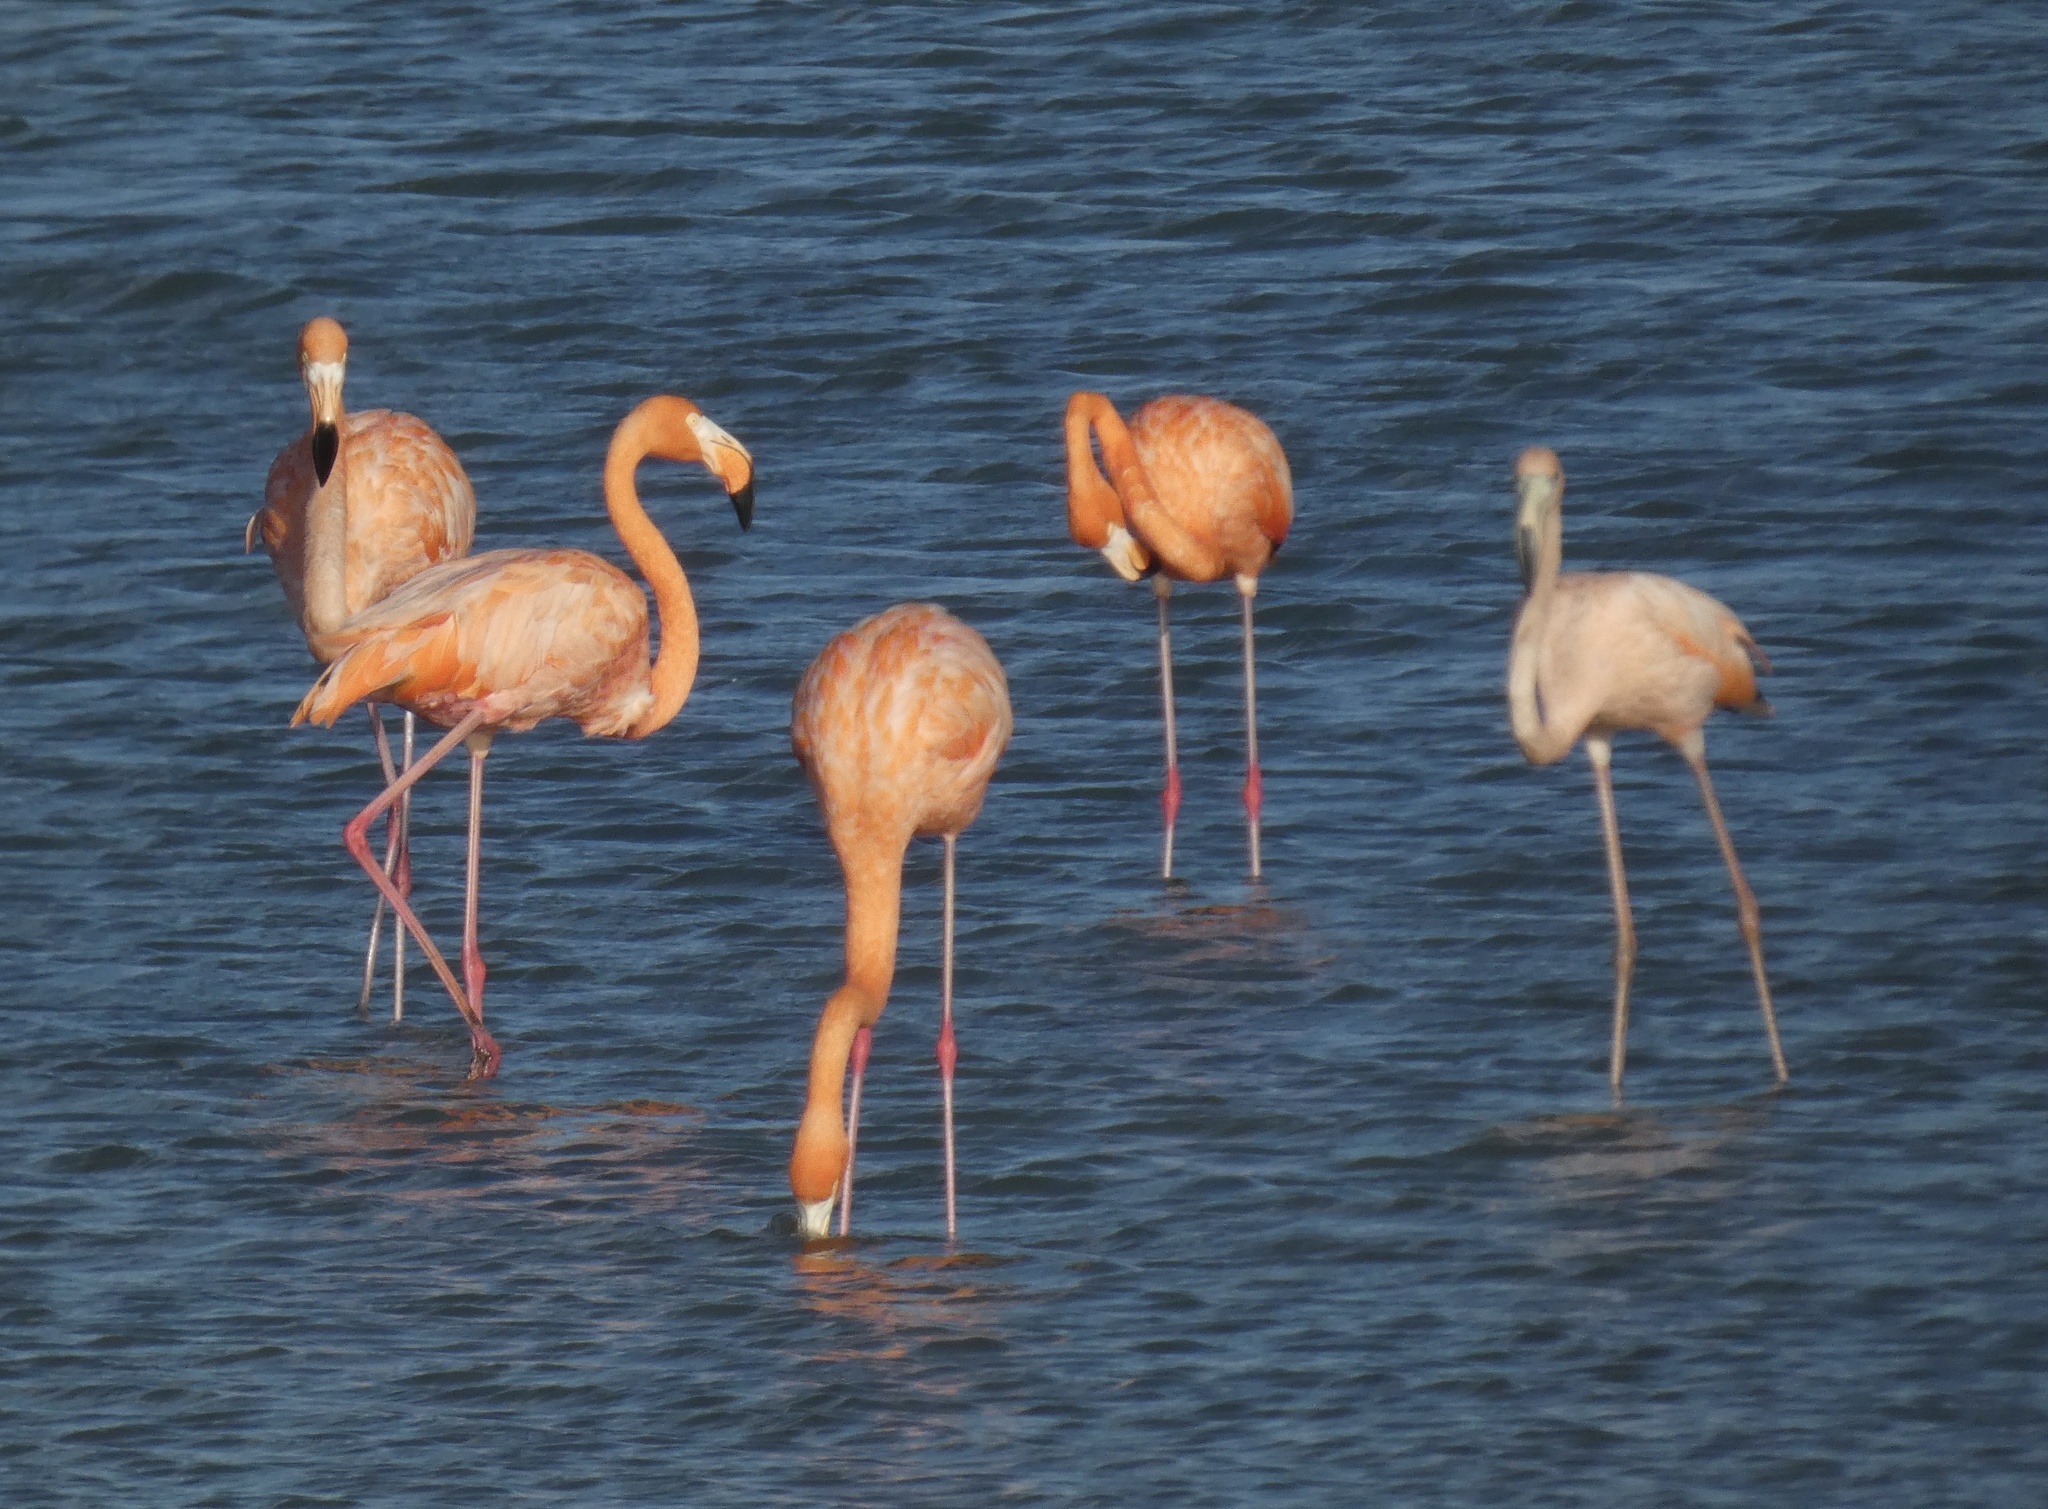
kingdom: Animalia
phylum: Chordata
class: Aves
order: Phoenicopteriformes
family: Phoenicopteridae
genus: Phoenicopterus
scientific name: Phoenicopterus ruber
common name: American flamingo
